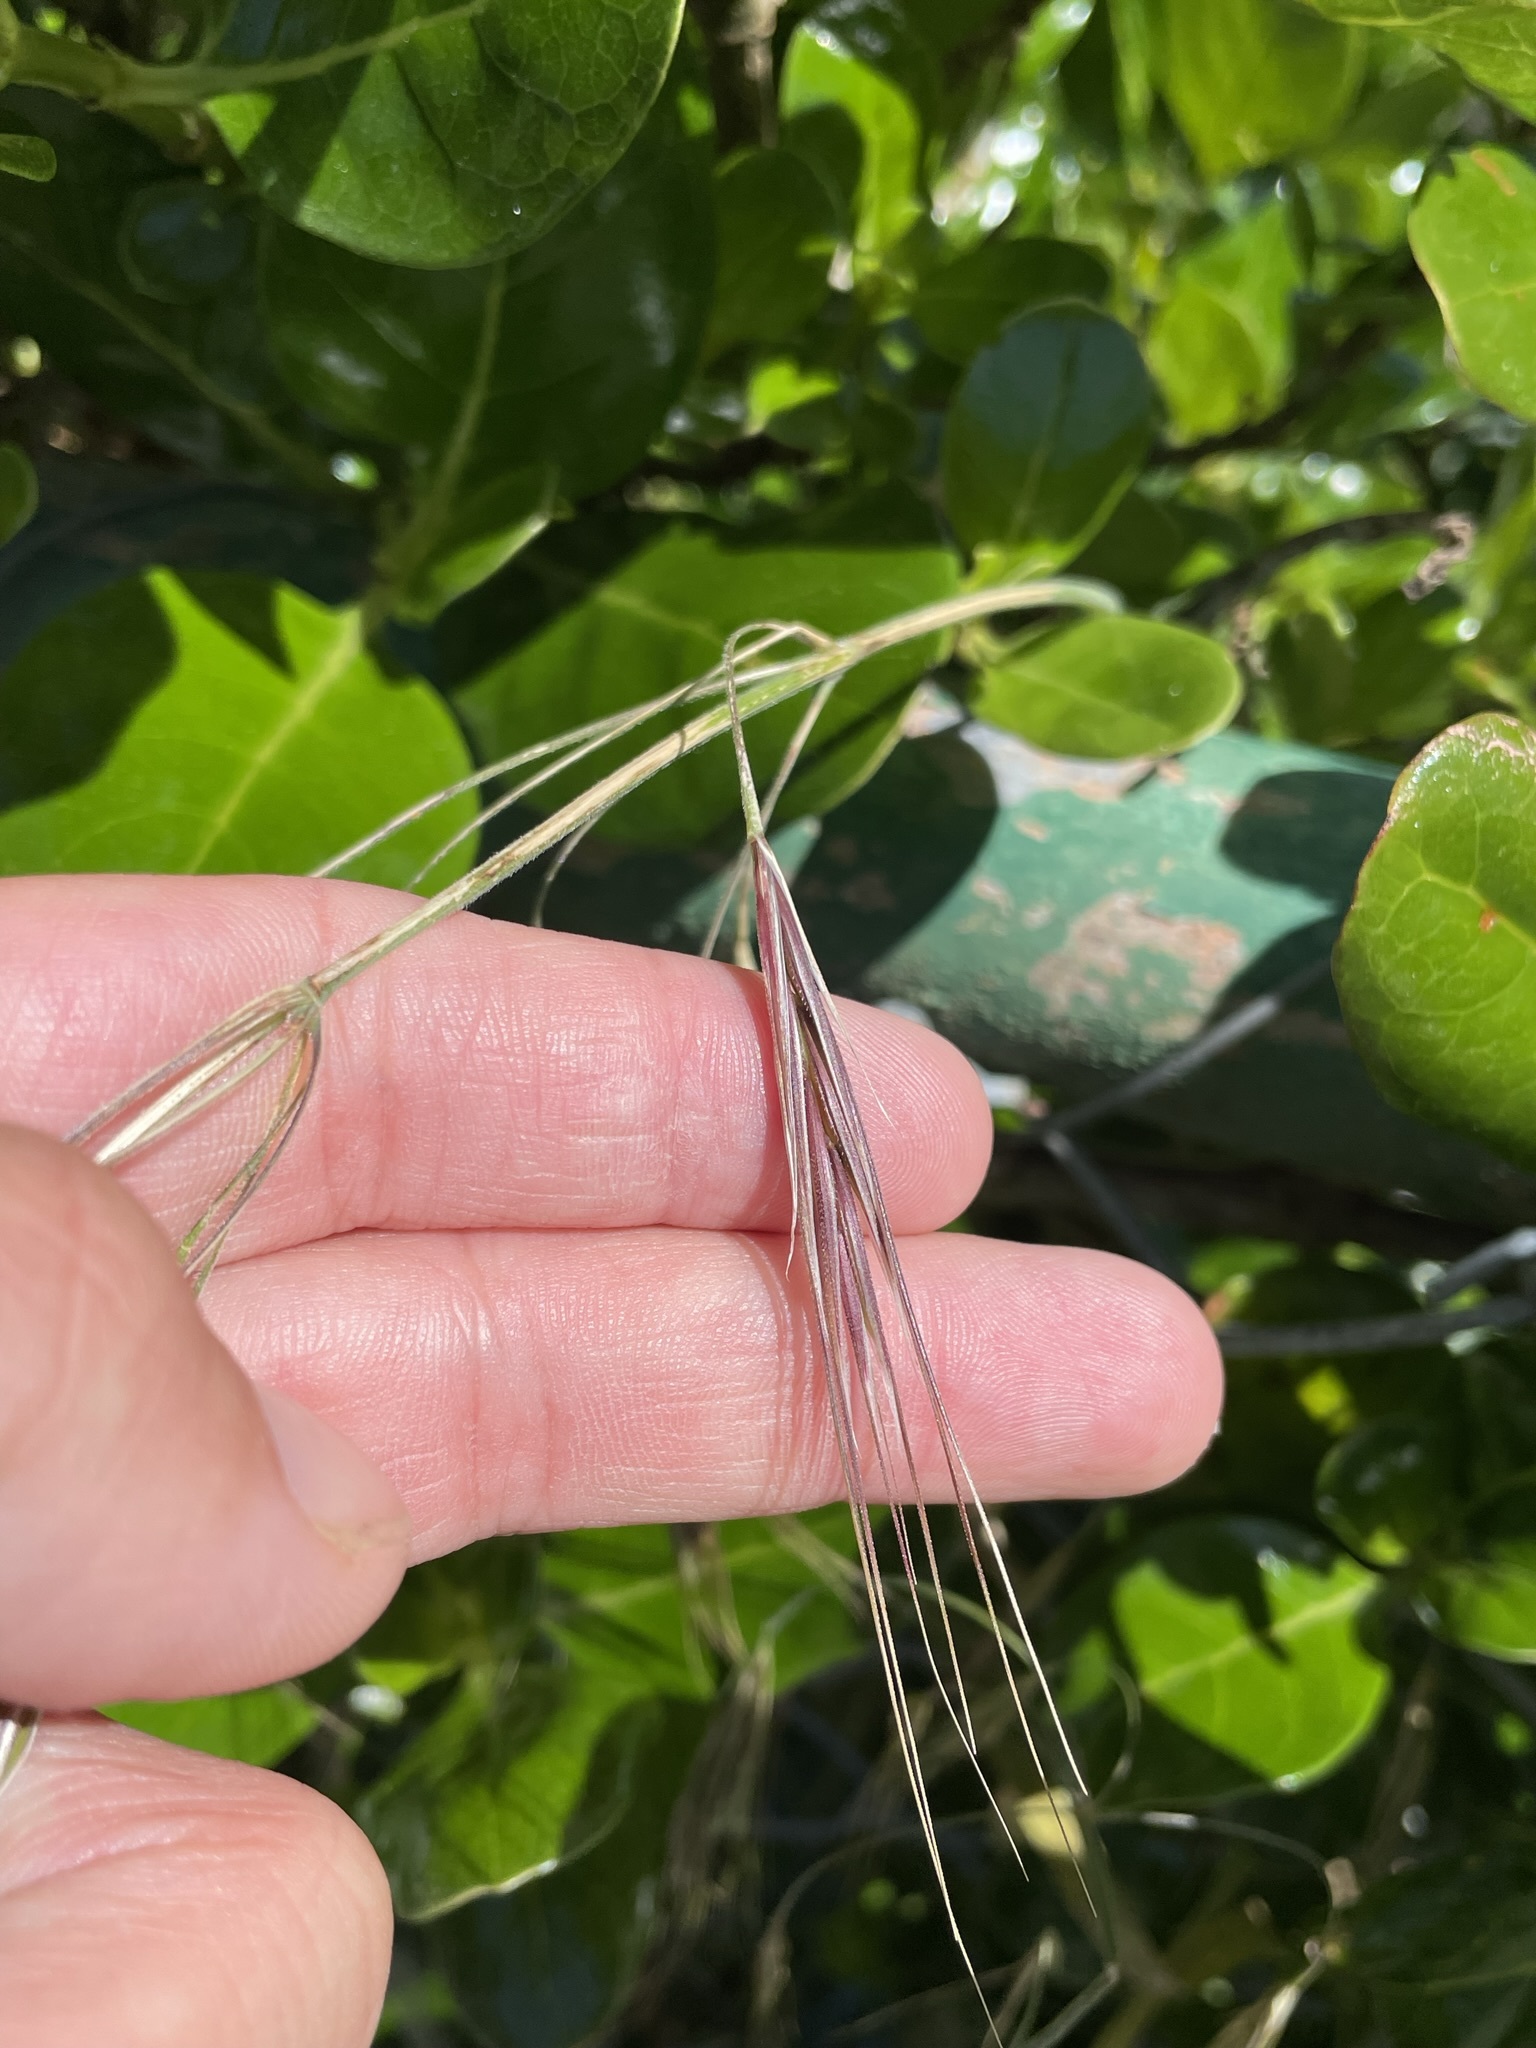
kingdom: Plantae
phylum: Tracheophyta
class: Liliopsida
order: Poales
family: Poaceae
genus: Bromus
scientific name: Bromus diandrus
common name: Ripgut brome
